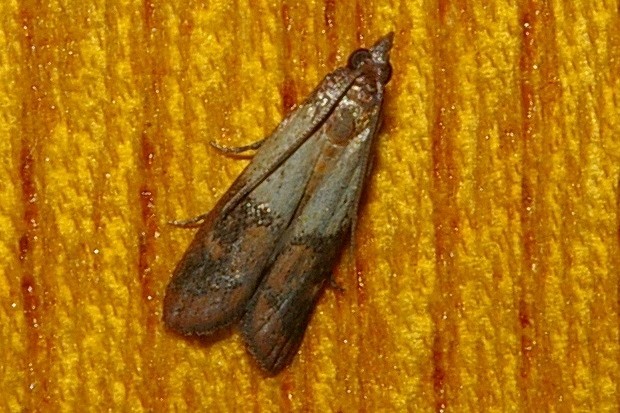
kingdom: Animalia
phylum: Arthropoda
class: Insecta
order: Lepidoptera
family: Pyralidae
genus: Plodia
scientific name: Plodia interpunctella
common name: Indian meal moth
